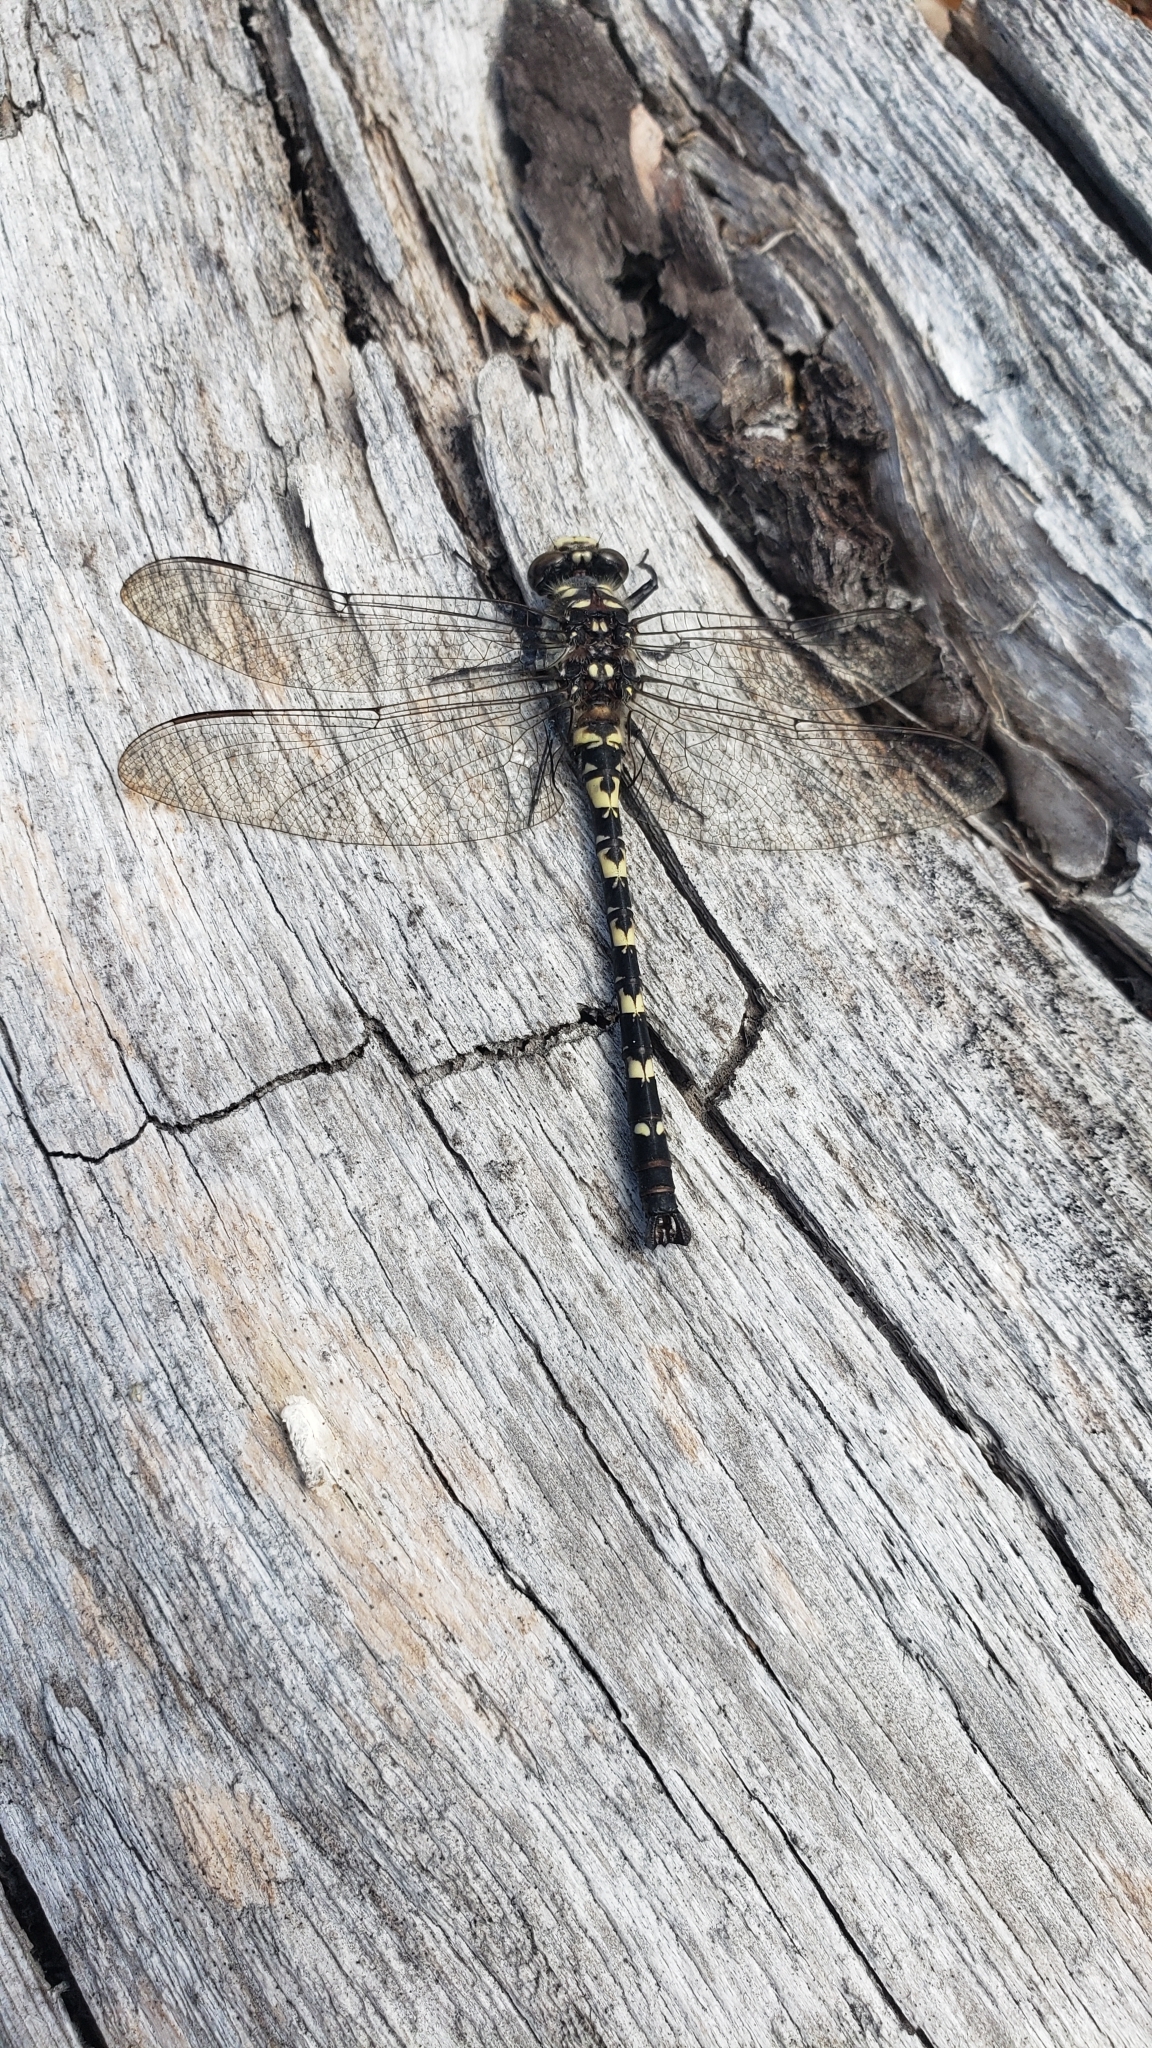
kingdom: Animalia
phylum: Arthropoda
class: Insecta
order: Odonata
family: Petaluridae
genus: Tanypteryx
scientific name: Tanypteryx hageni
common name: Black petaltail
